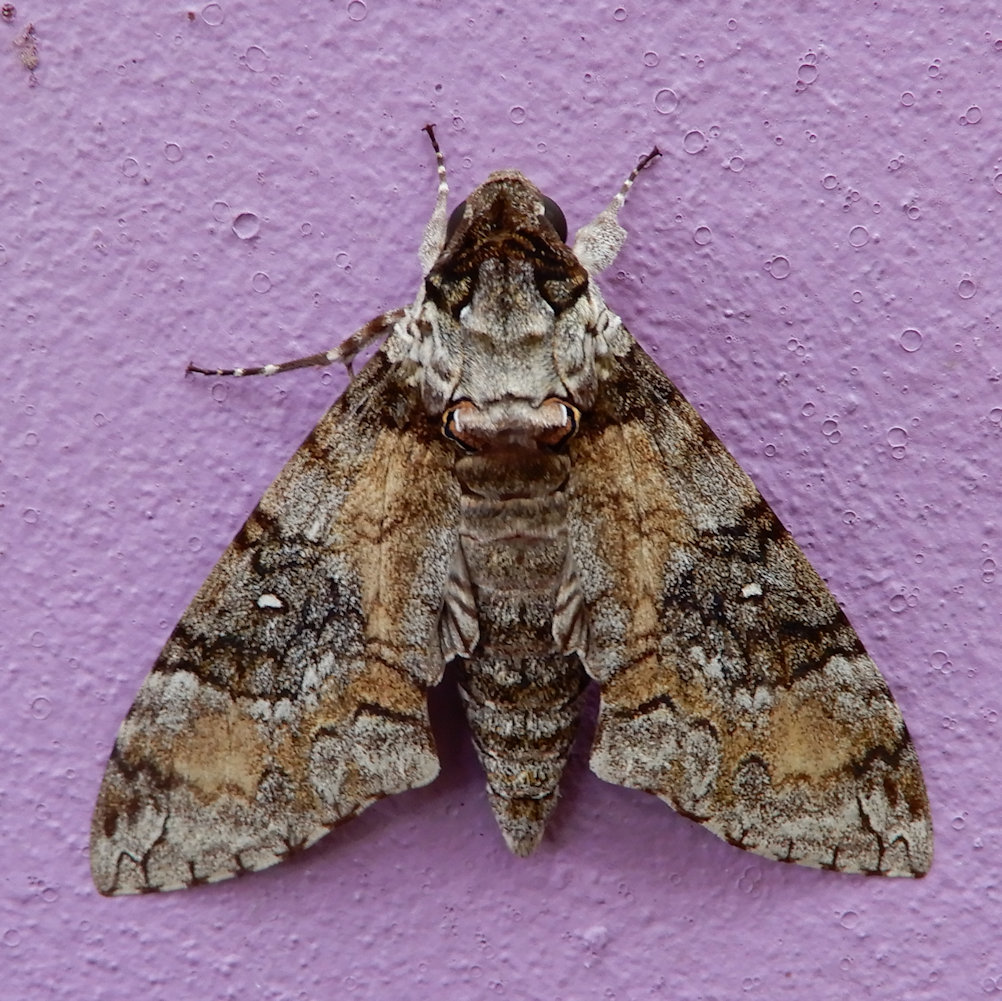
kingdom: Animalia
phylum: Arthropoda
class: Insecta
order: Lepidoptera
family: Sphingidae
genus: Manduca
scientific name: Manduca brontes
